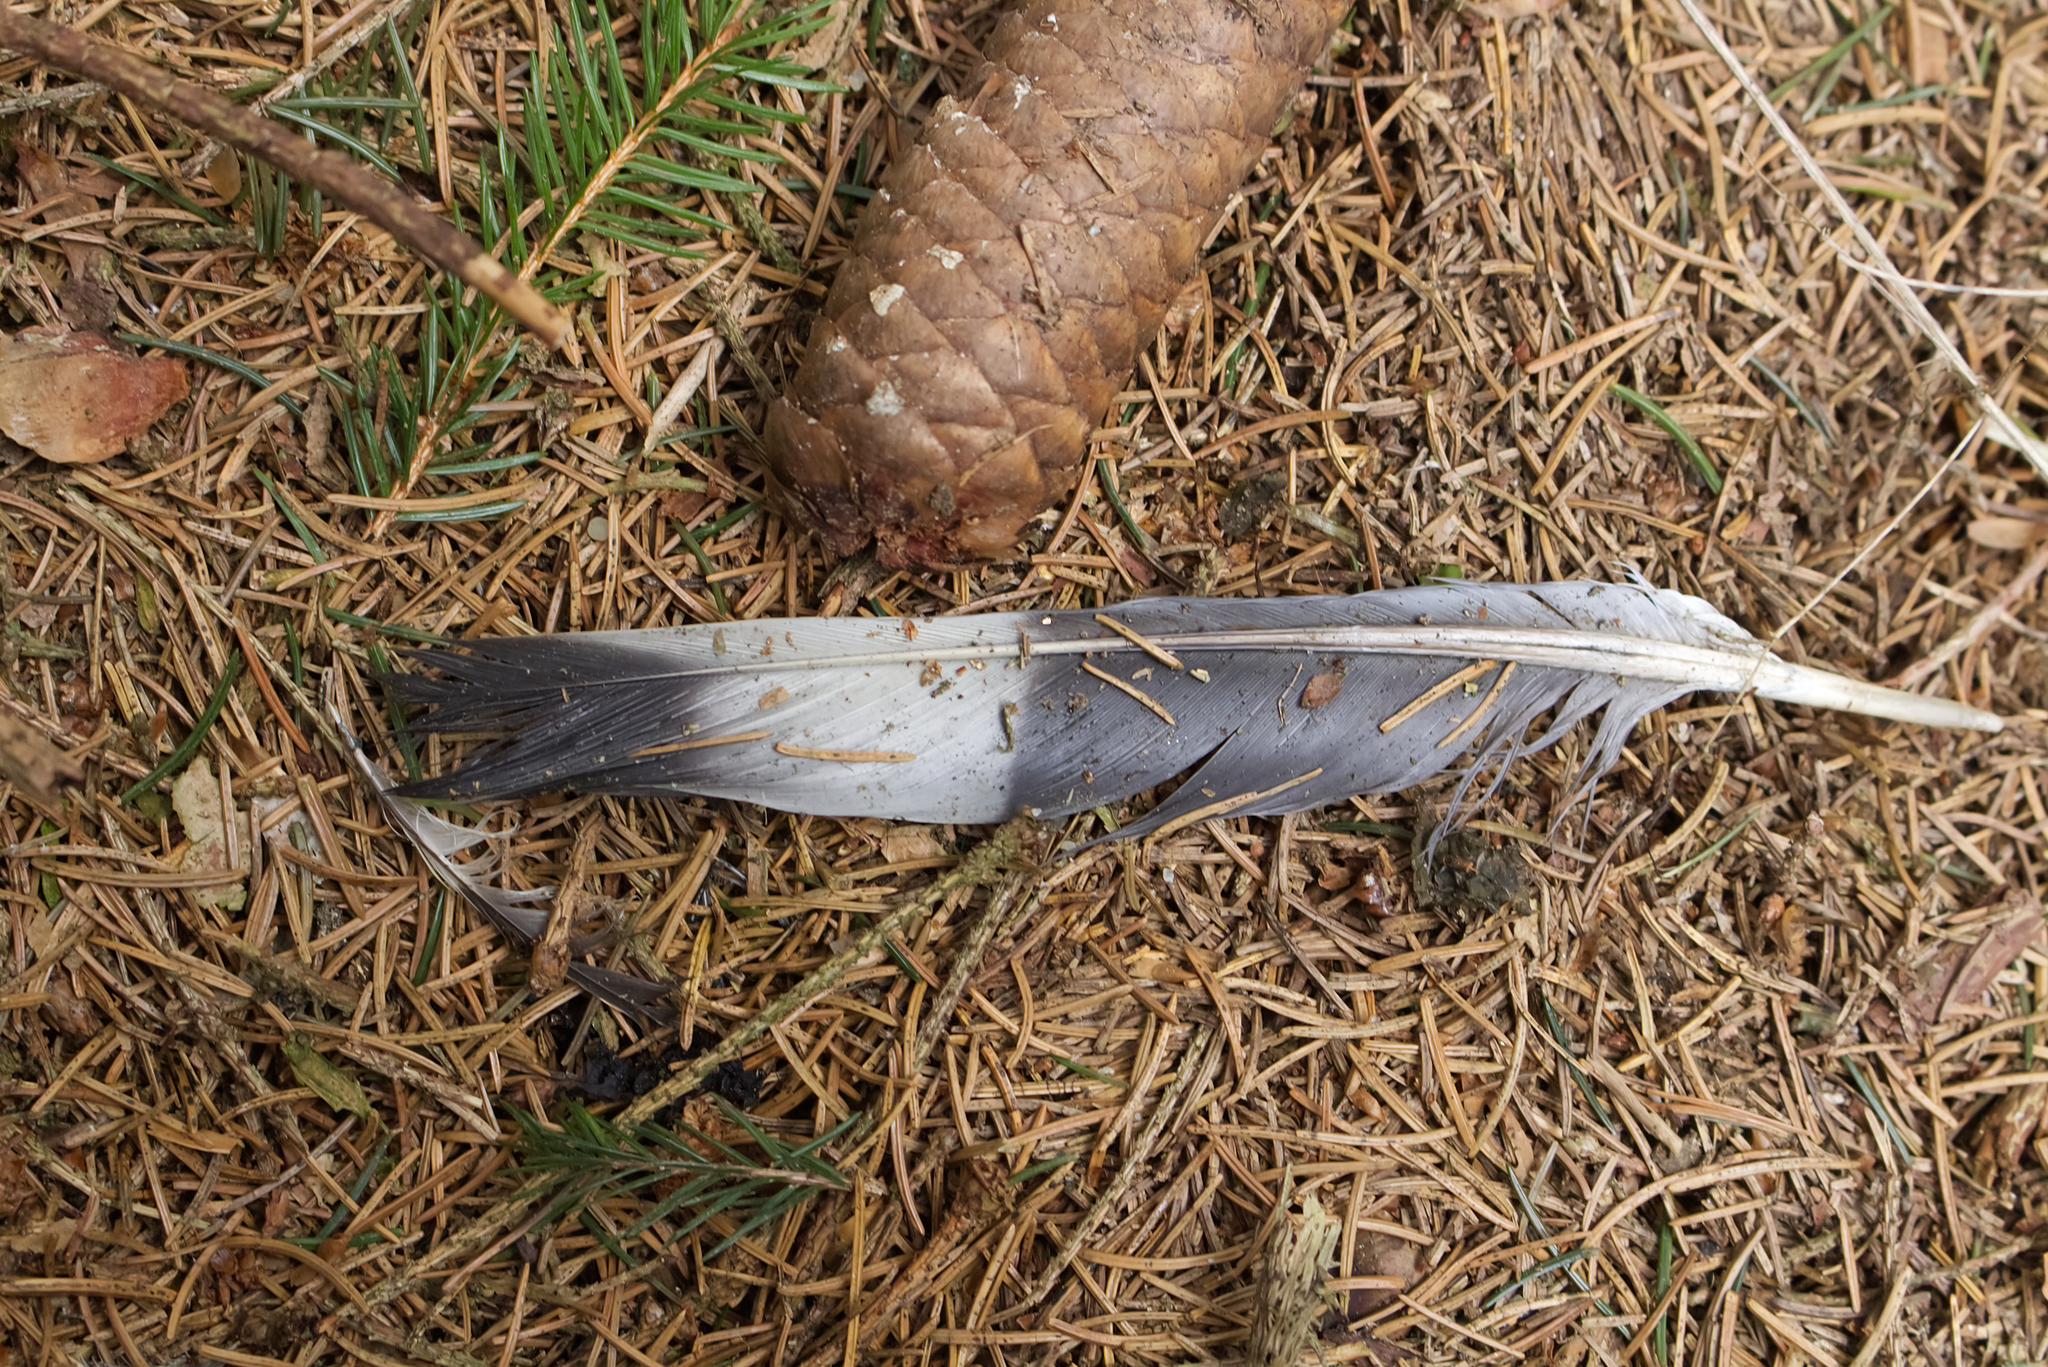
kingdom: Animalia
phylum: Chordata
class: Aves
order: Columbiformes
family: Columbidae
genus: Columba
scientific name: Columba palumbus
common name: Common wood pigeon
